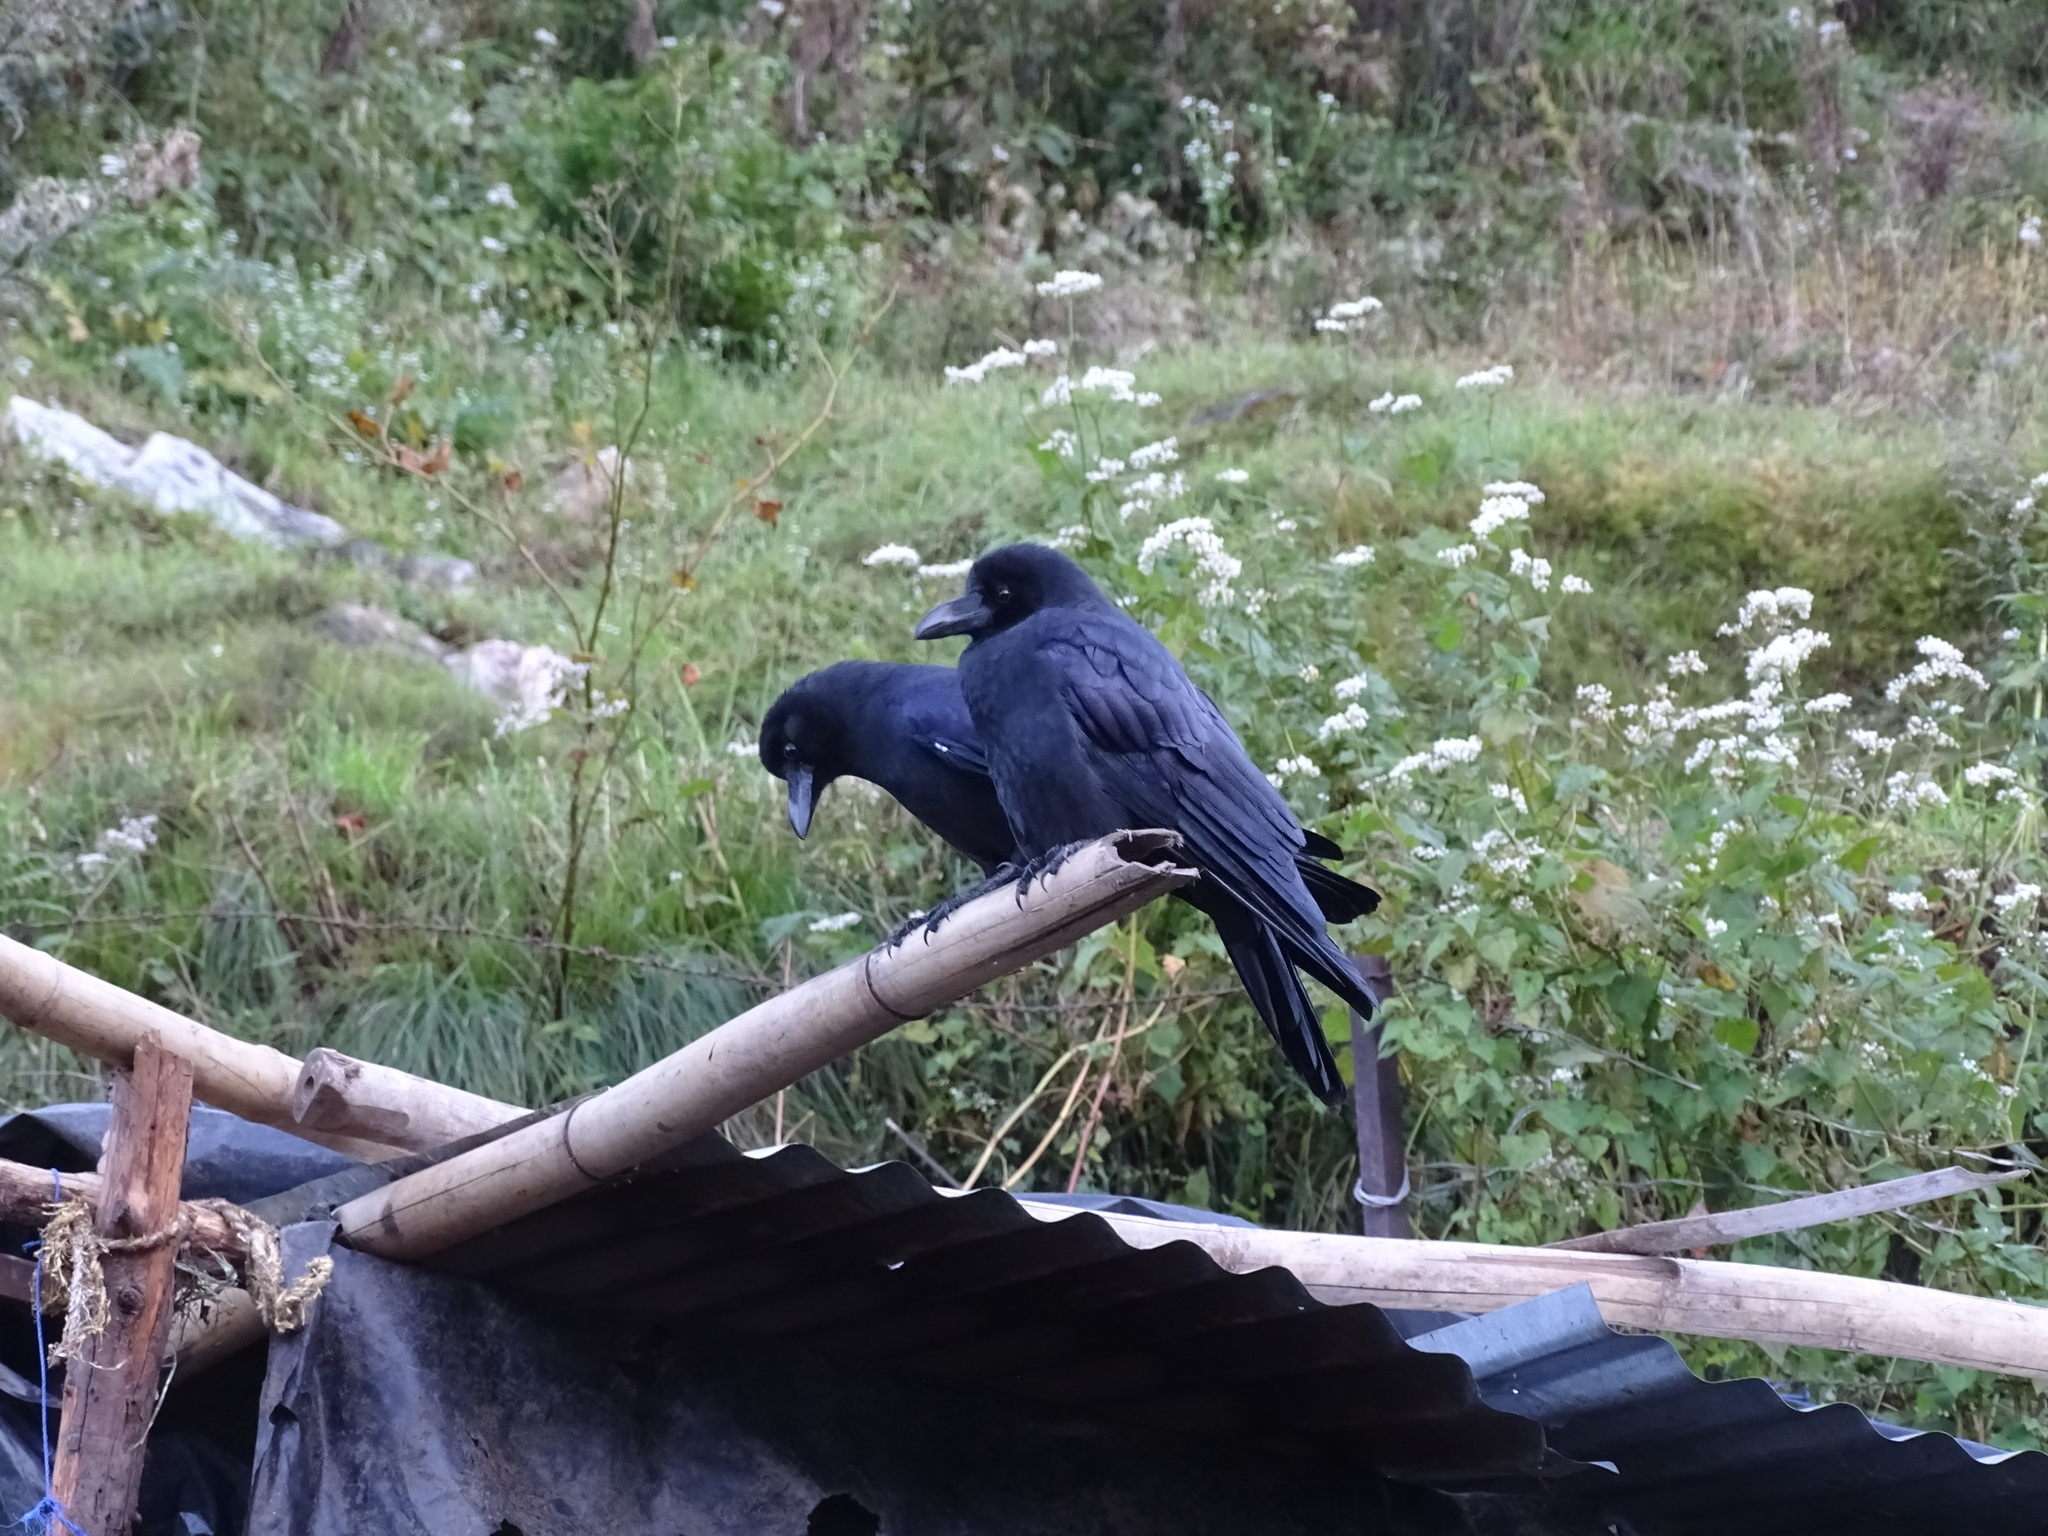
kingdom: Animalia
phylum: Chordata
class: Aves
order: Passeriformes
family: Corvidae
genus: Corvus
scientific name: Corvus macrorhynchos
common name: Large-billed crow
